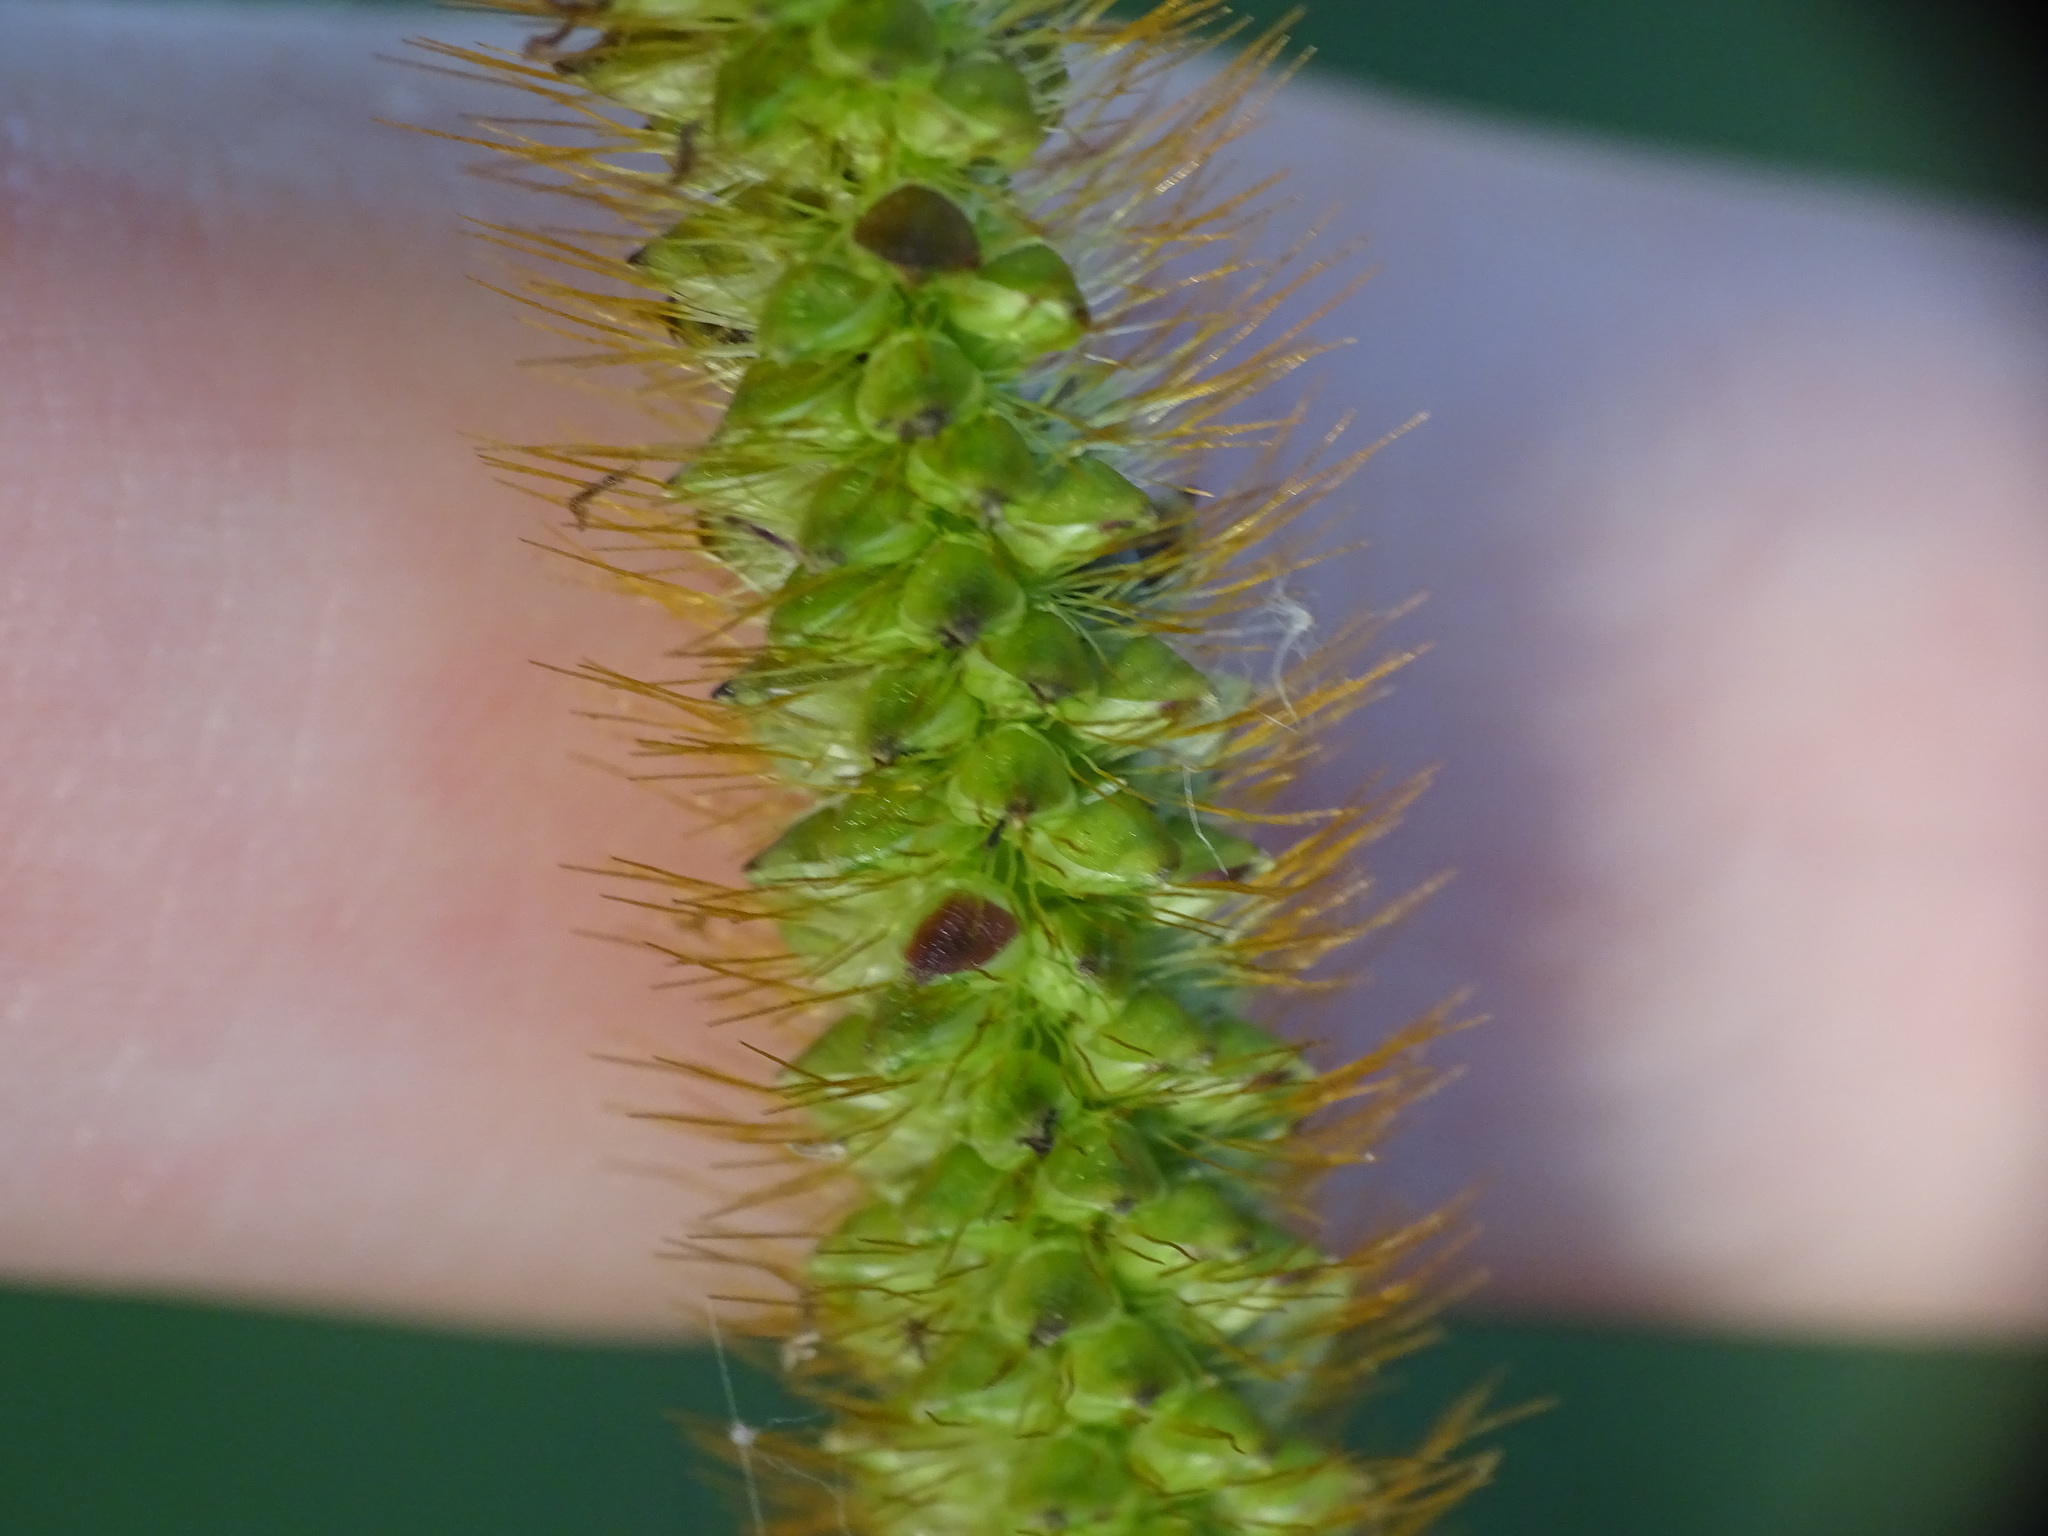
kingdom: Plantae
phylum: Tracheophyta
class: Liliopsida
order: Poales
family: Poaceae
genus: Setaria
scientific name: Setaria pumila
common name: Yellow bristle-grass
